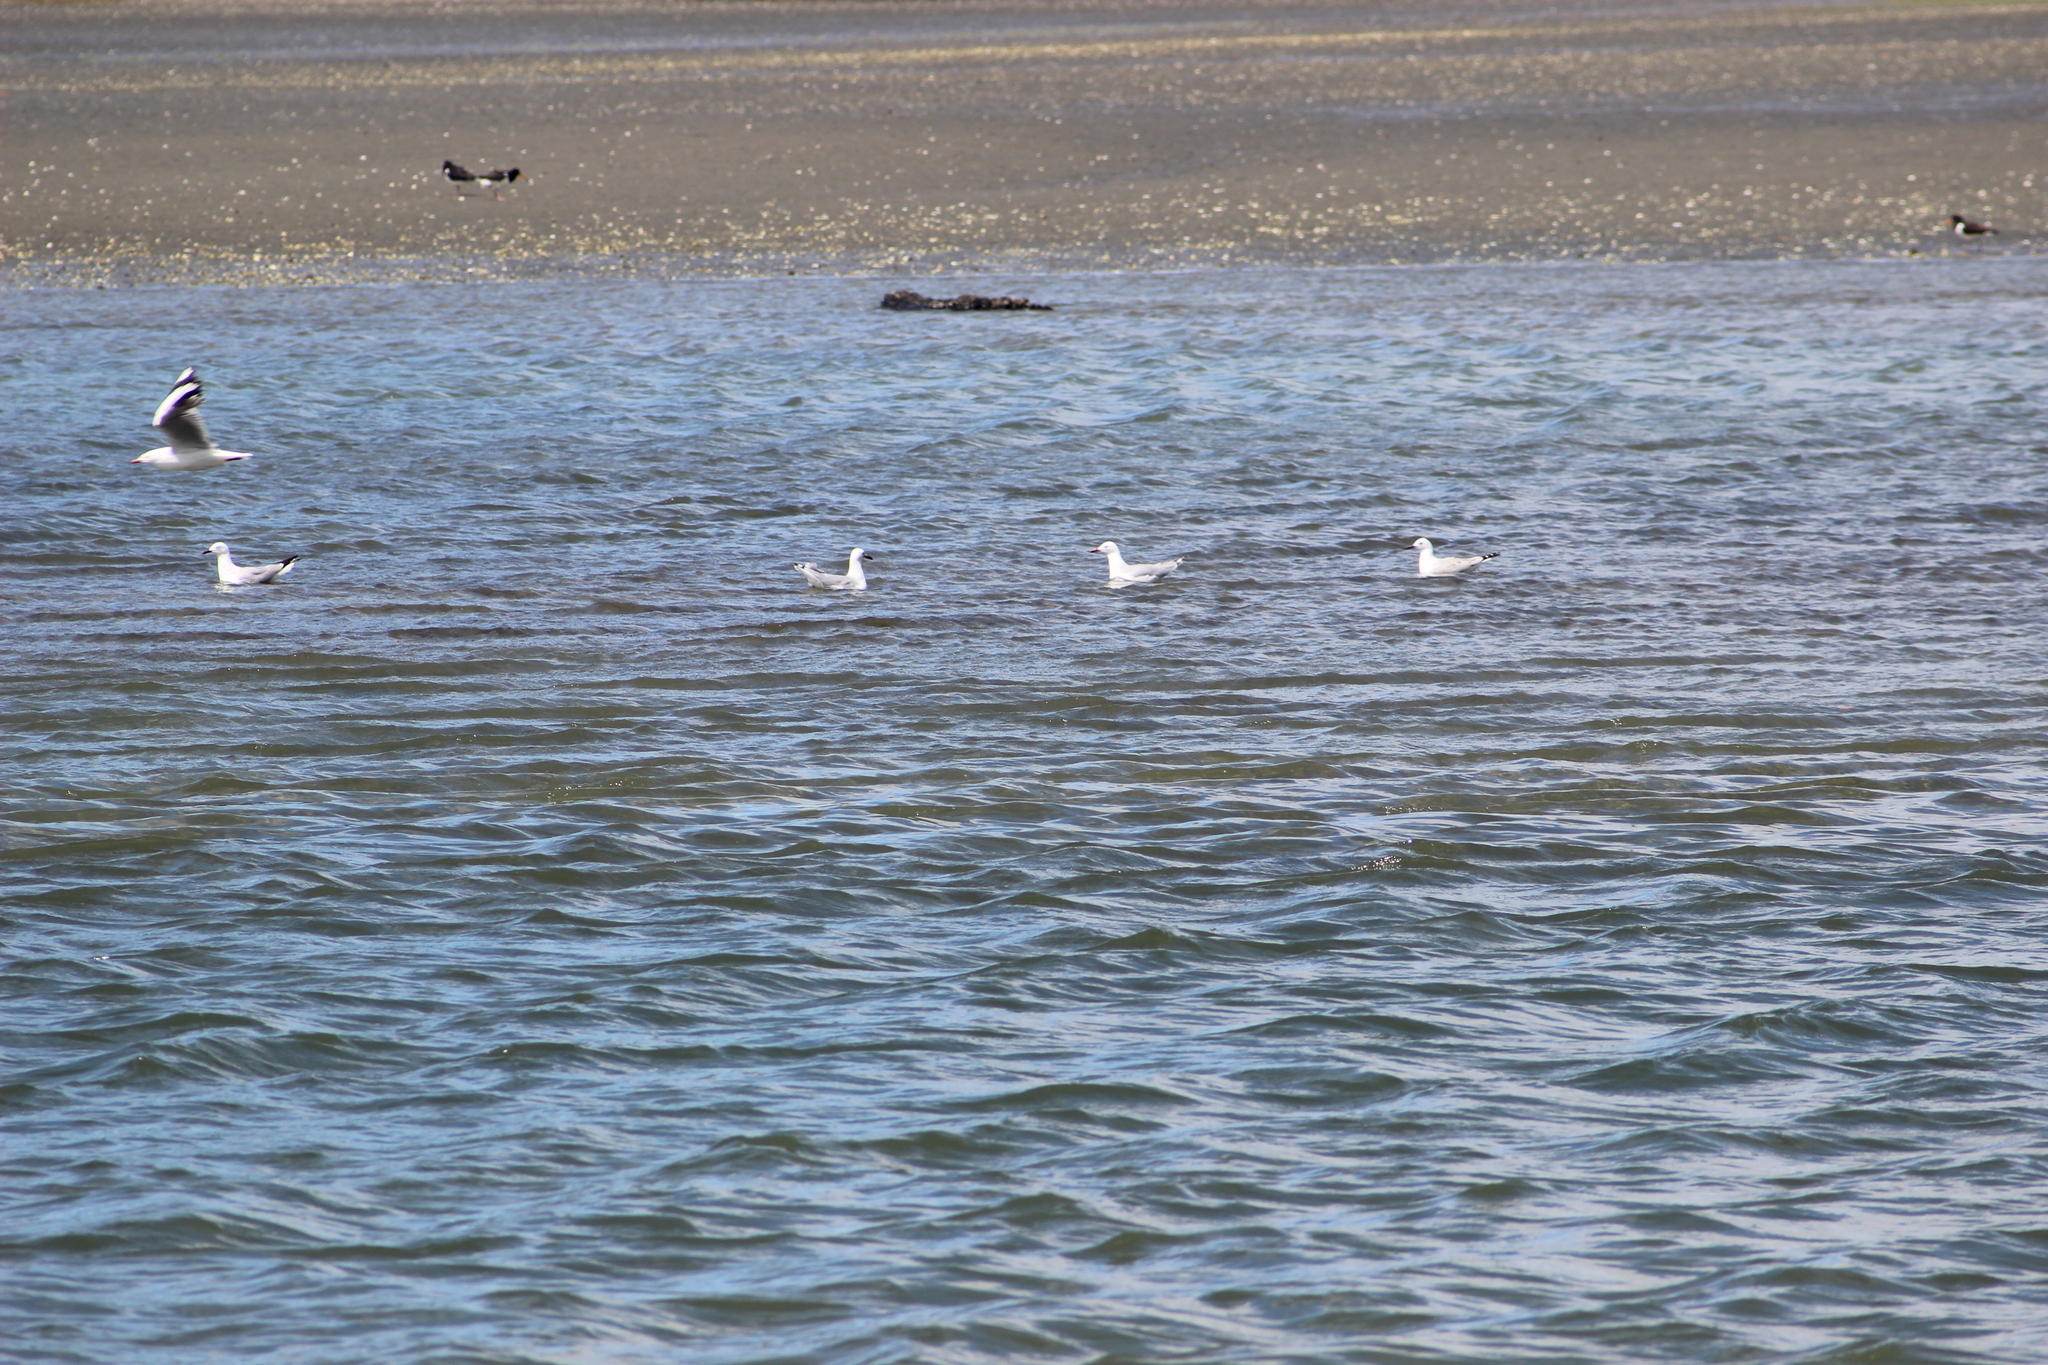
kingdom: Animalia
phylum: Chordata
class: Aves
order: Charadriiformes
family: Laridae
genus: Chroicocephalus
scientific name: Chroicocephalus novaehollandiae
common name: Silver gull
